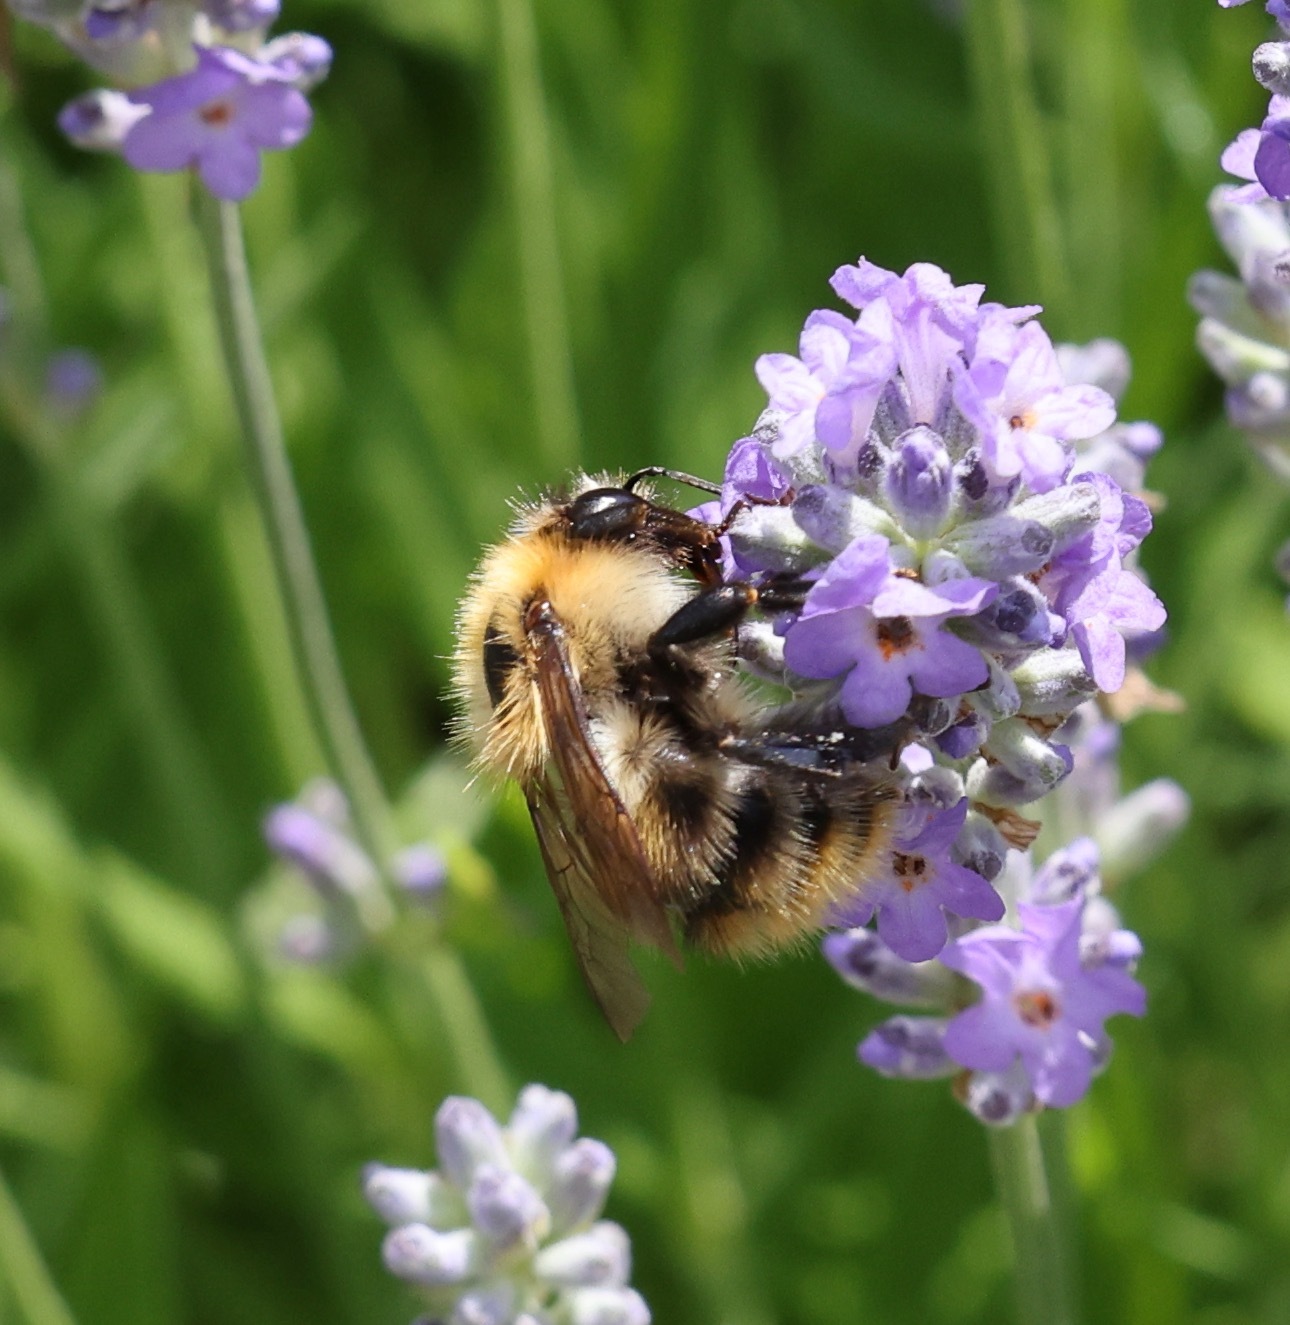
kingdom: Animalia
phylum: Arthropoda
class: Insecta
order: Hymenoptera
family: Apidae
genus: Bombus
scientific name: Bombus pascuorum
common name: Common carder bee
